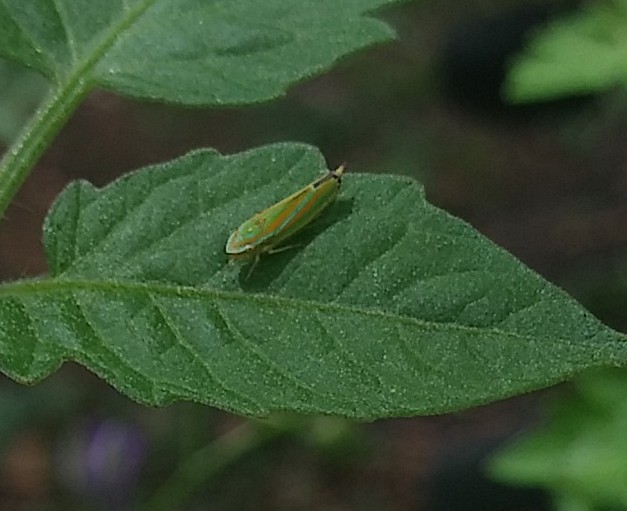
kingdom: Animalia
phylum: Arthropoda
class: Insecta
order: Hemiptera
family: Cicadellidae
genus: Graphocephala
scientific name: Graphocephala versuta
